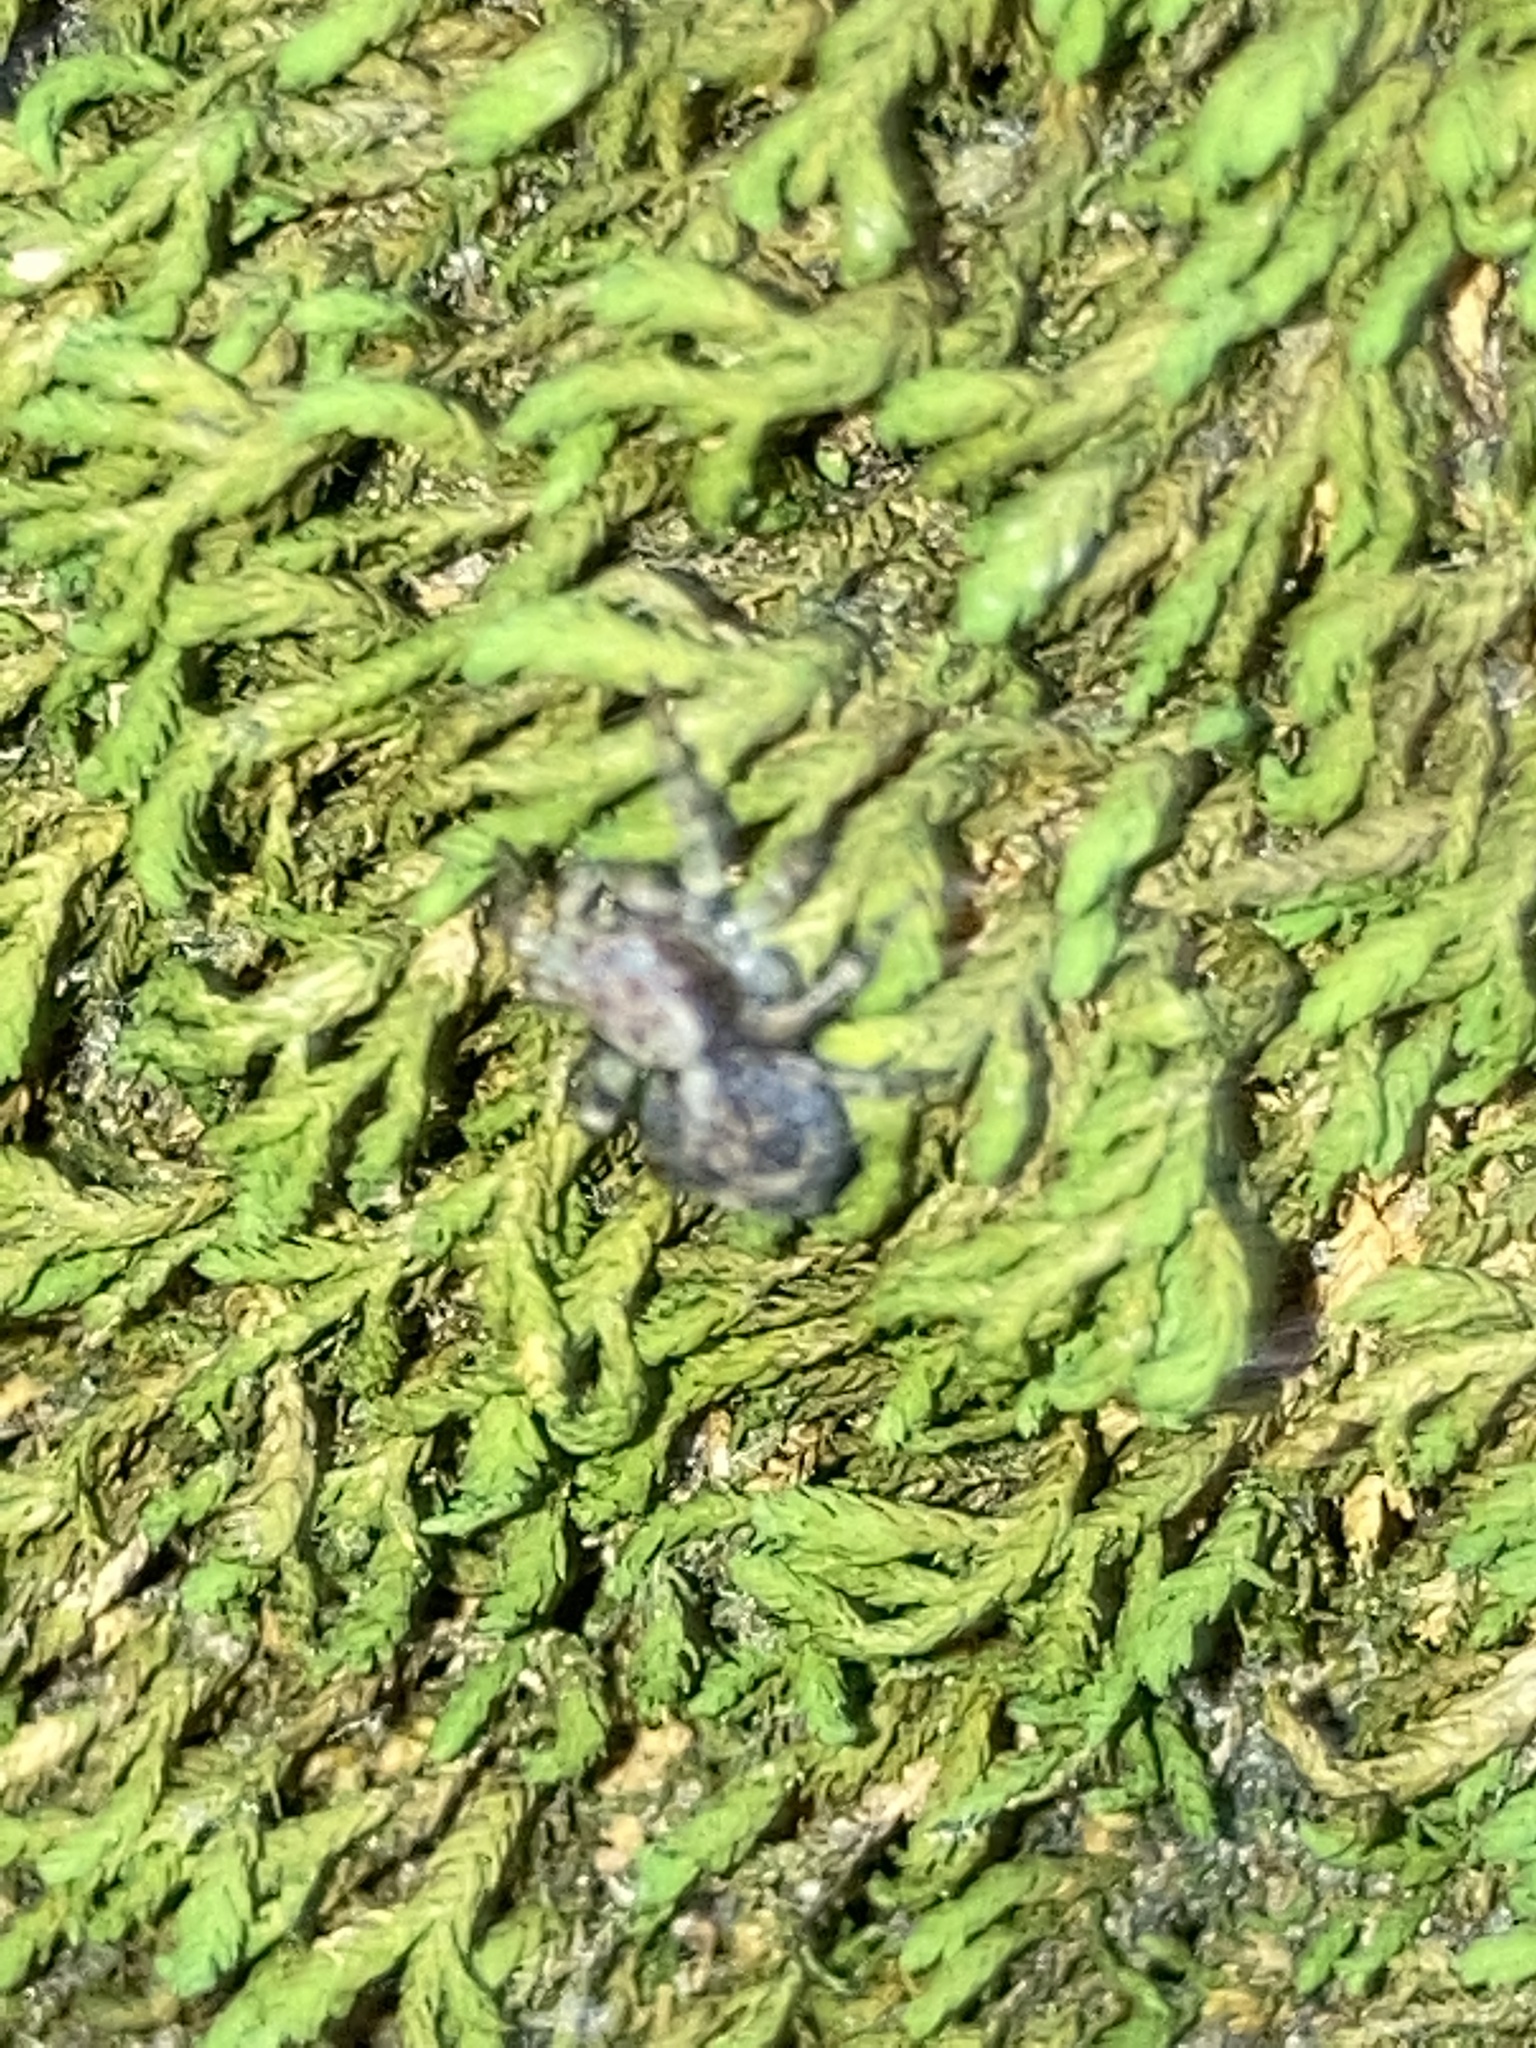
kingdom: Animalia
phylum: Arthropoda
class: Arachnida
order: Araneae
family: Salticidae
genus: Naphrys
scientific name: Naphrys pulex
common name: Flea jumping spider
